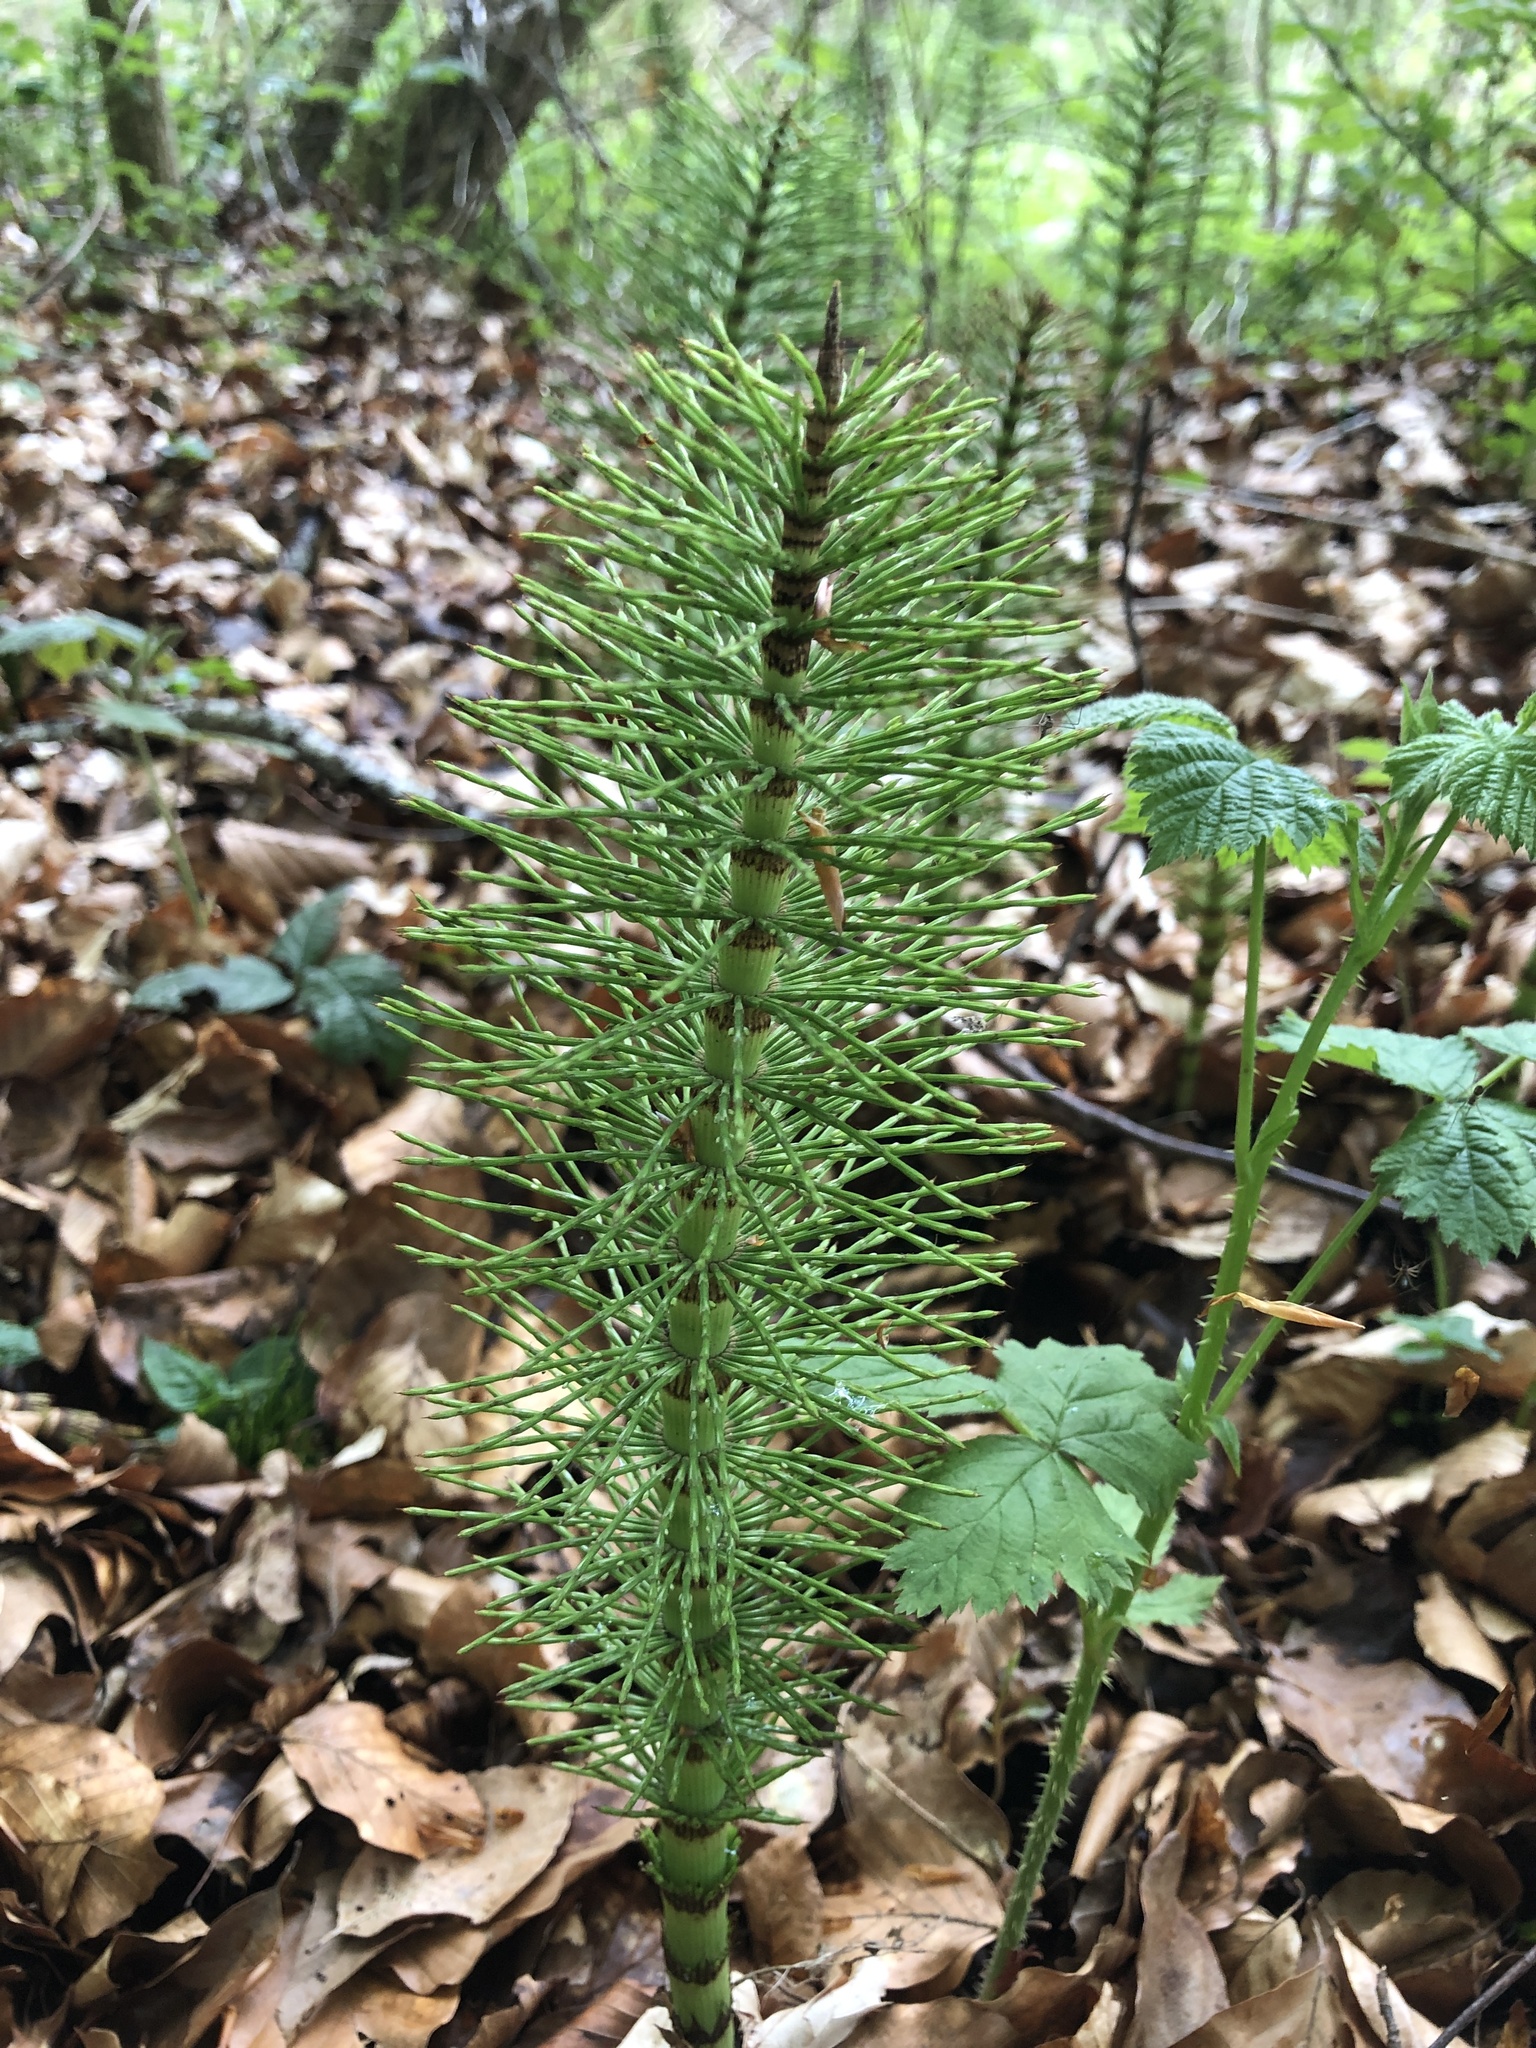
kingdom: Plantae
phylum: Tracheophyta
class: Polypodiopsida
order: Equisetales
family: Equisetaceae
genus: Equisetum
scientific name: Equisetum telmateia
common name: Great horsetail
